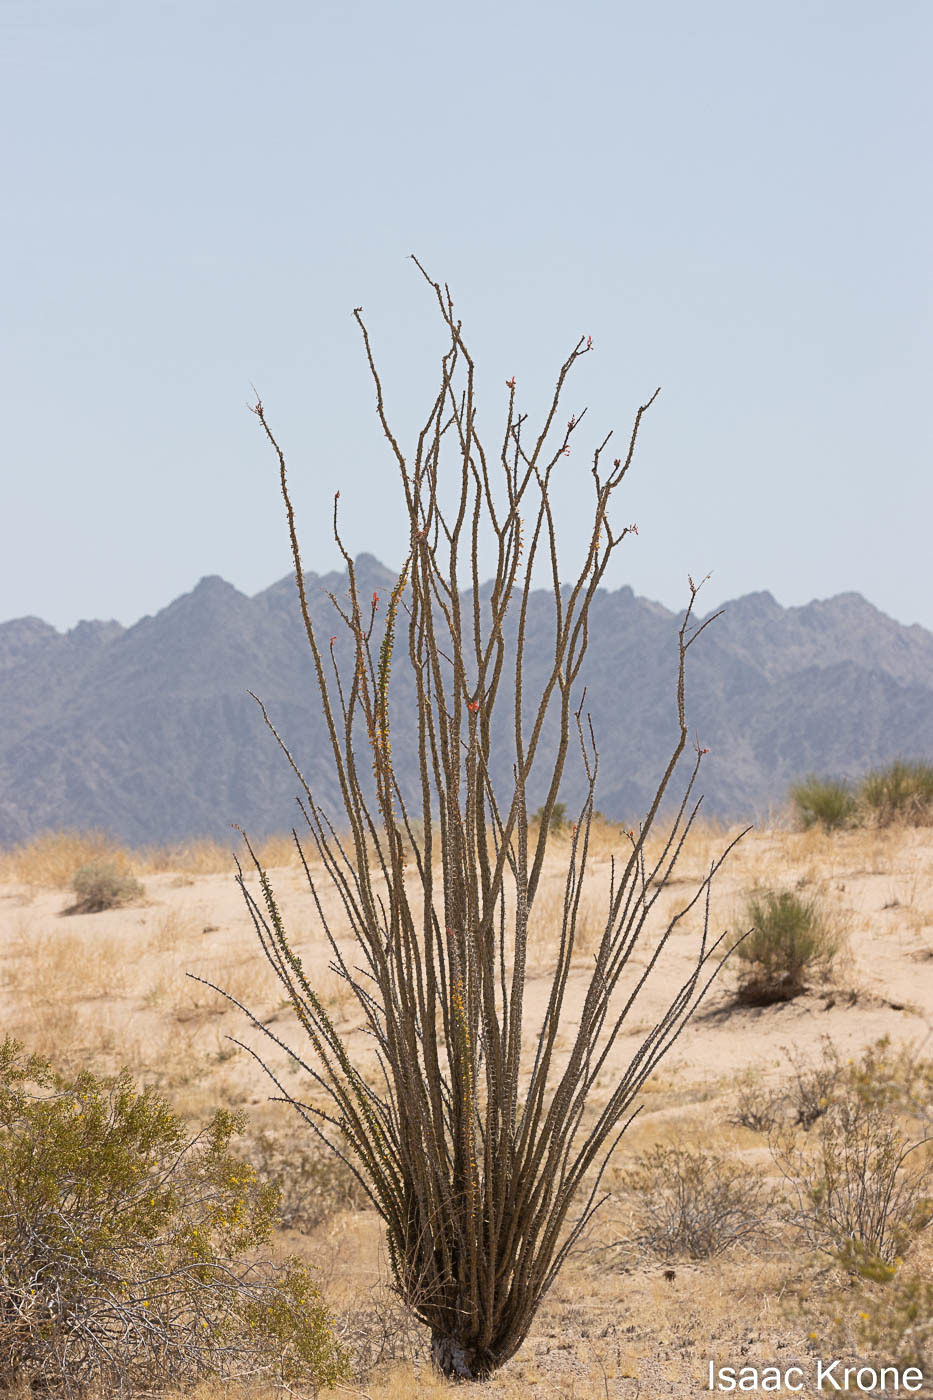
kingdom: Plantae
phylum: Tracheophyta
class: Magnoliopsida
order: Ericales
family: Fouquieriaceae
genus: Fouquieria
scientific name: Fouquieria splendens
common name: Vine-cactus
